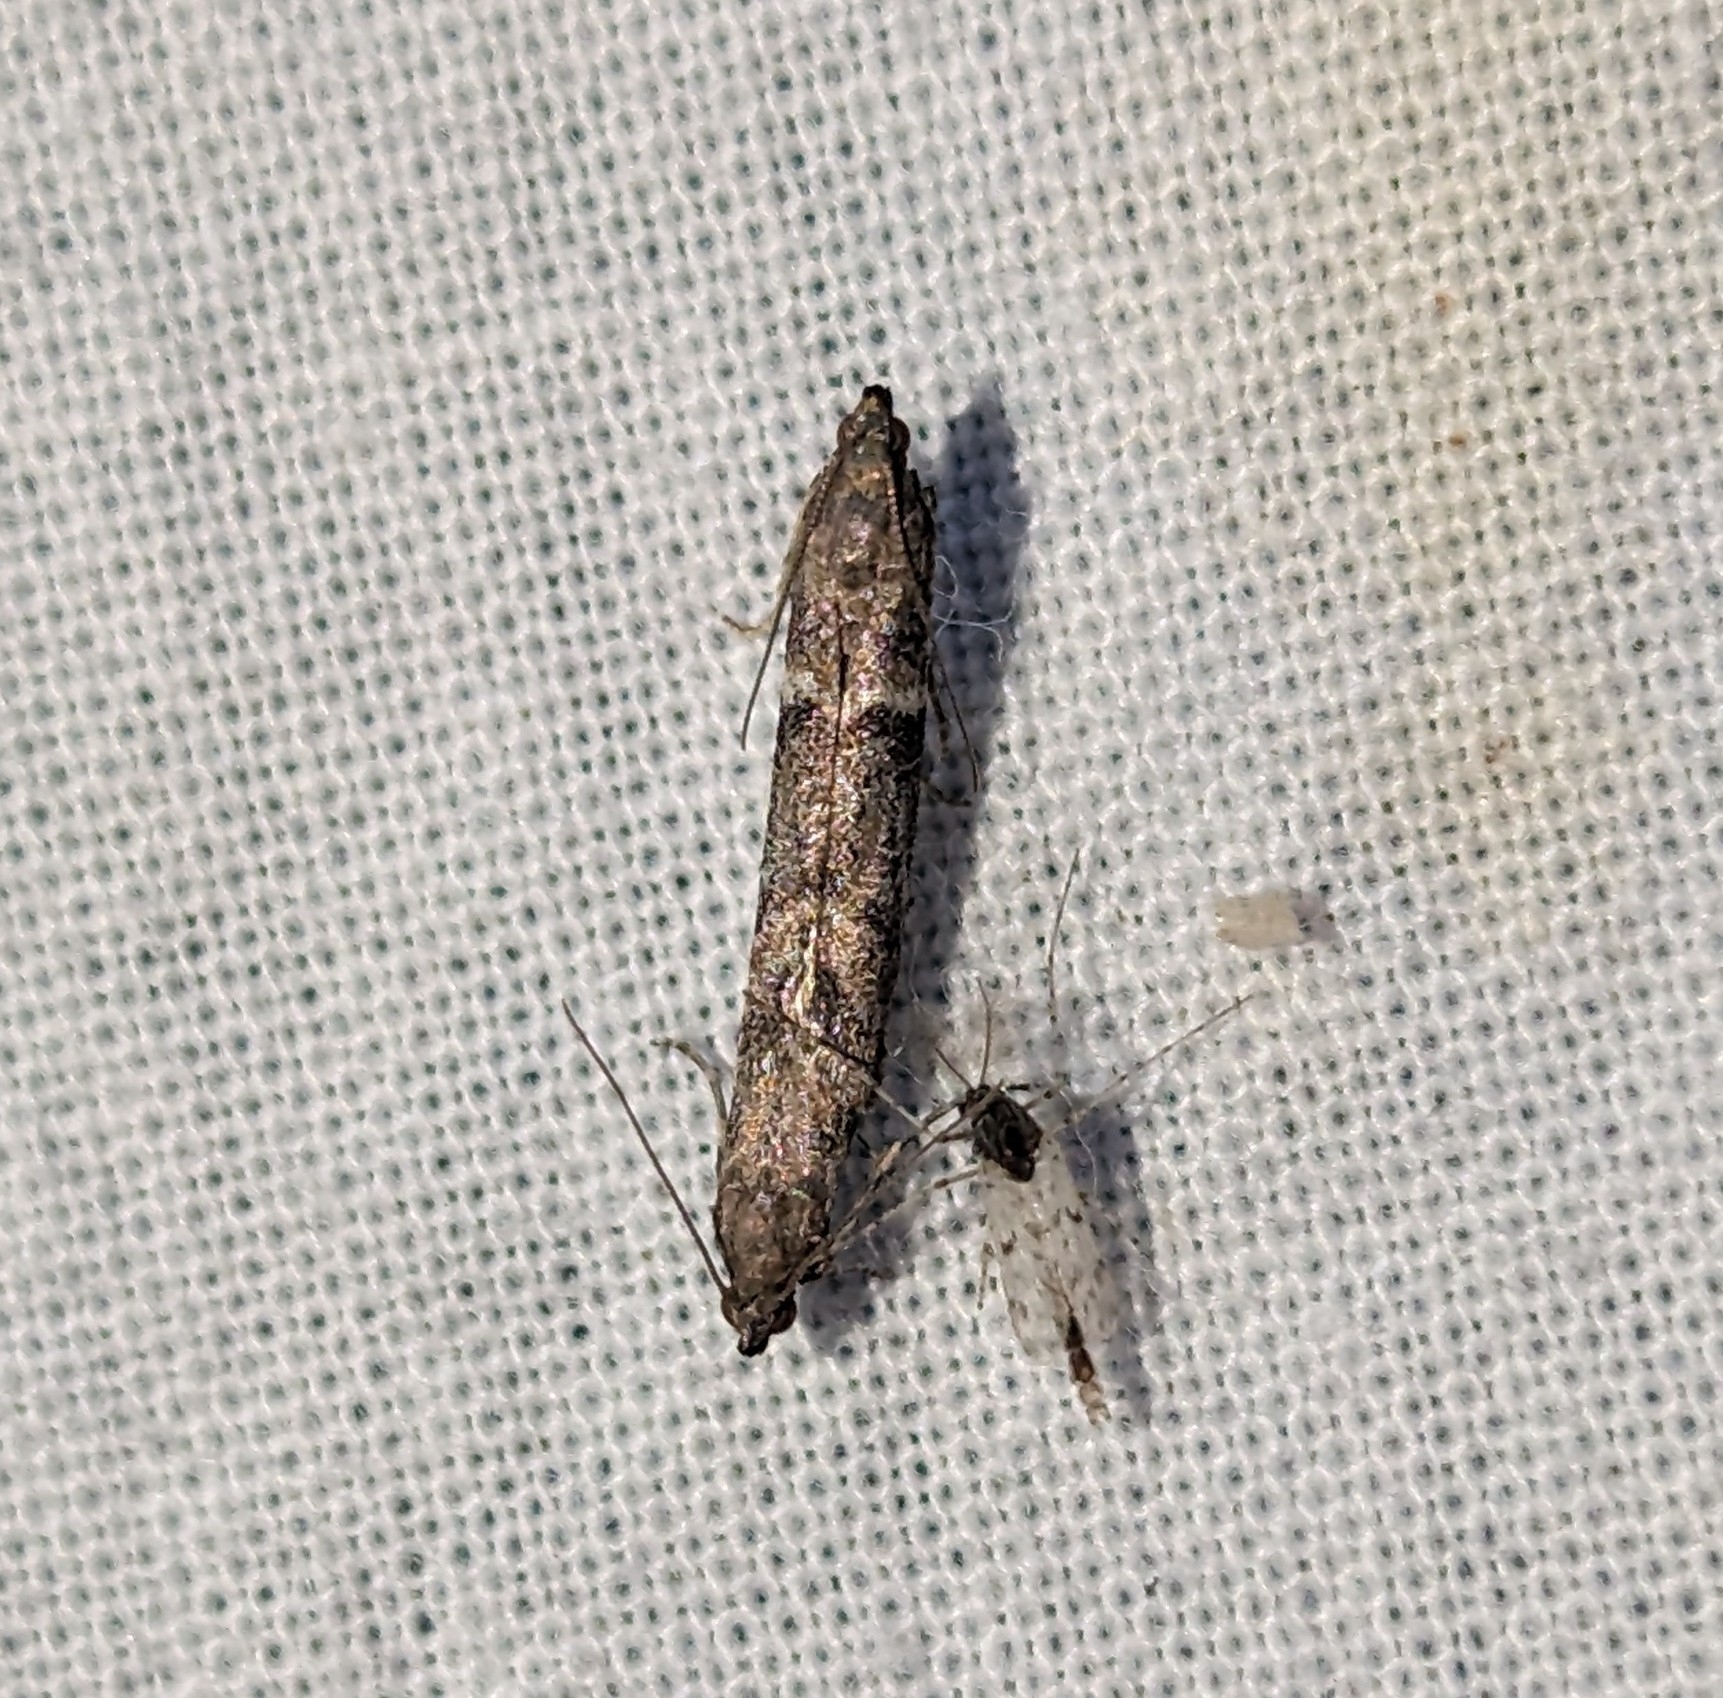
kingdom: Animalia
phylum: Arthropoda
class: Insecta
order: Lepidoptera
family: Pyralidae
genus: Ephestiodes
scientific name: Ephestiodes gilvescentella
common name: Moth
